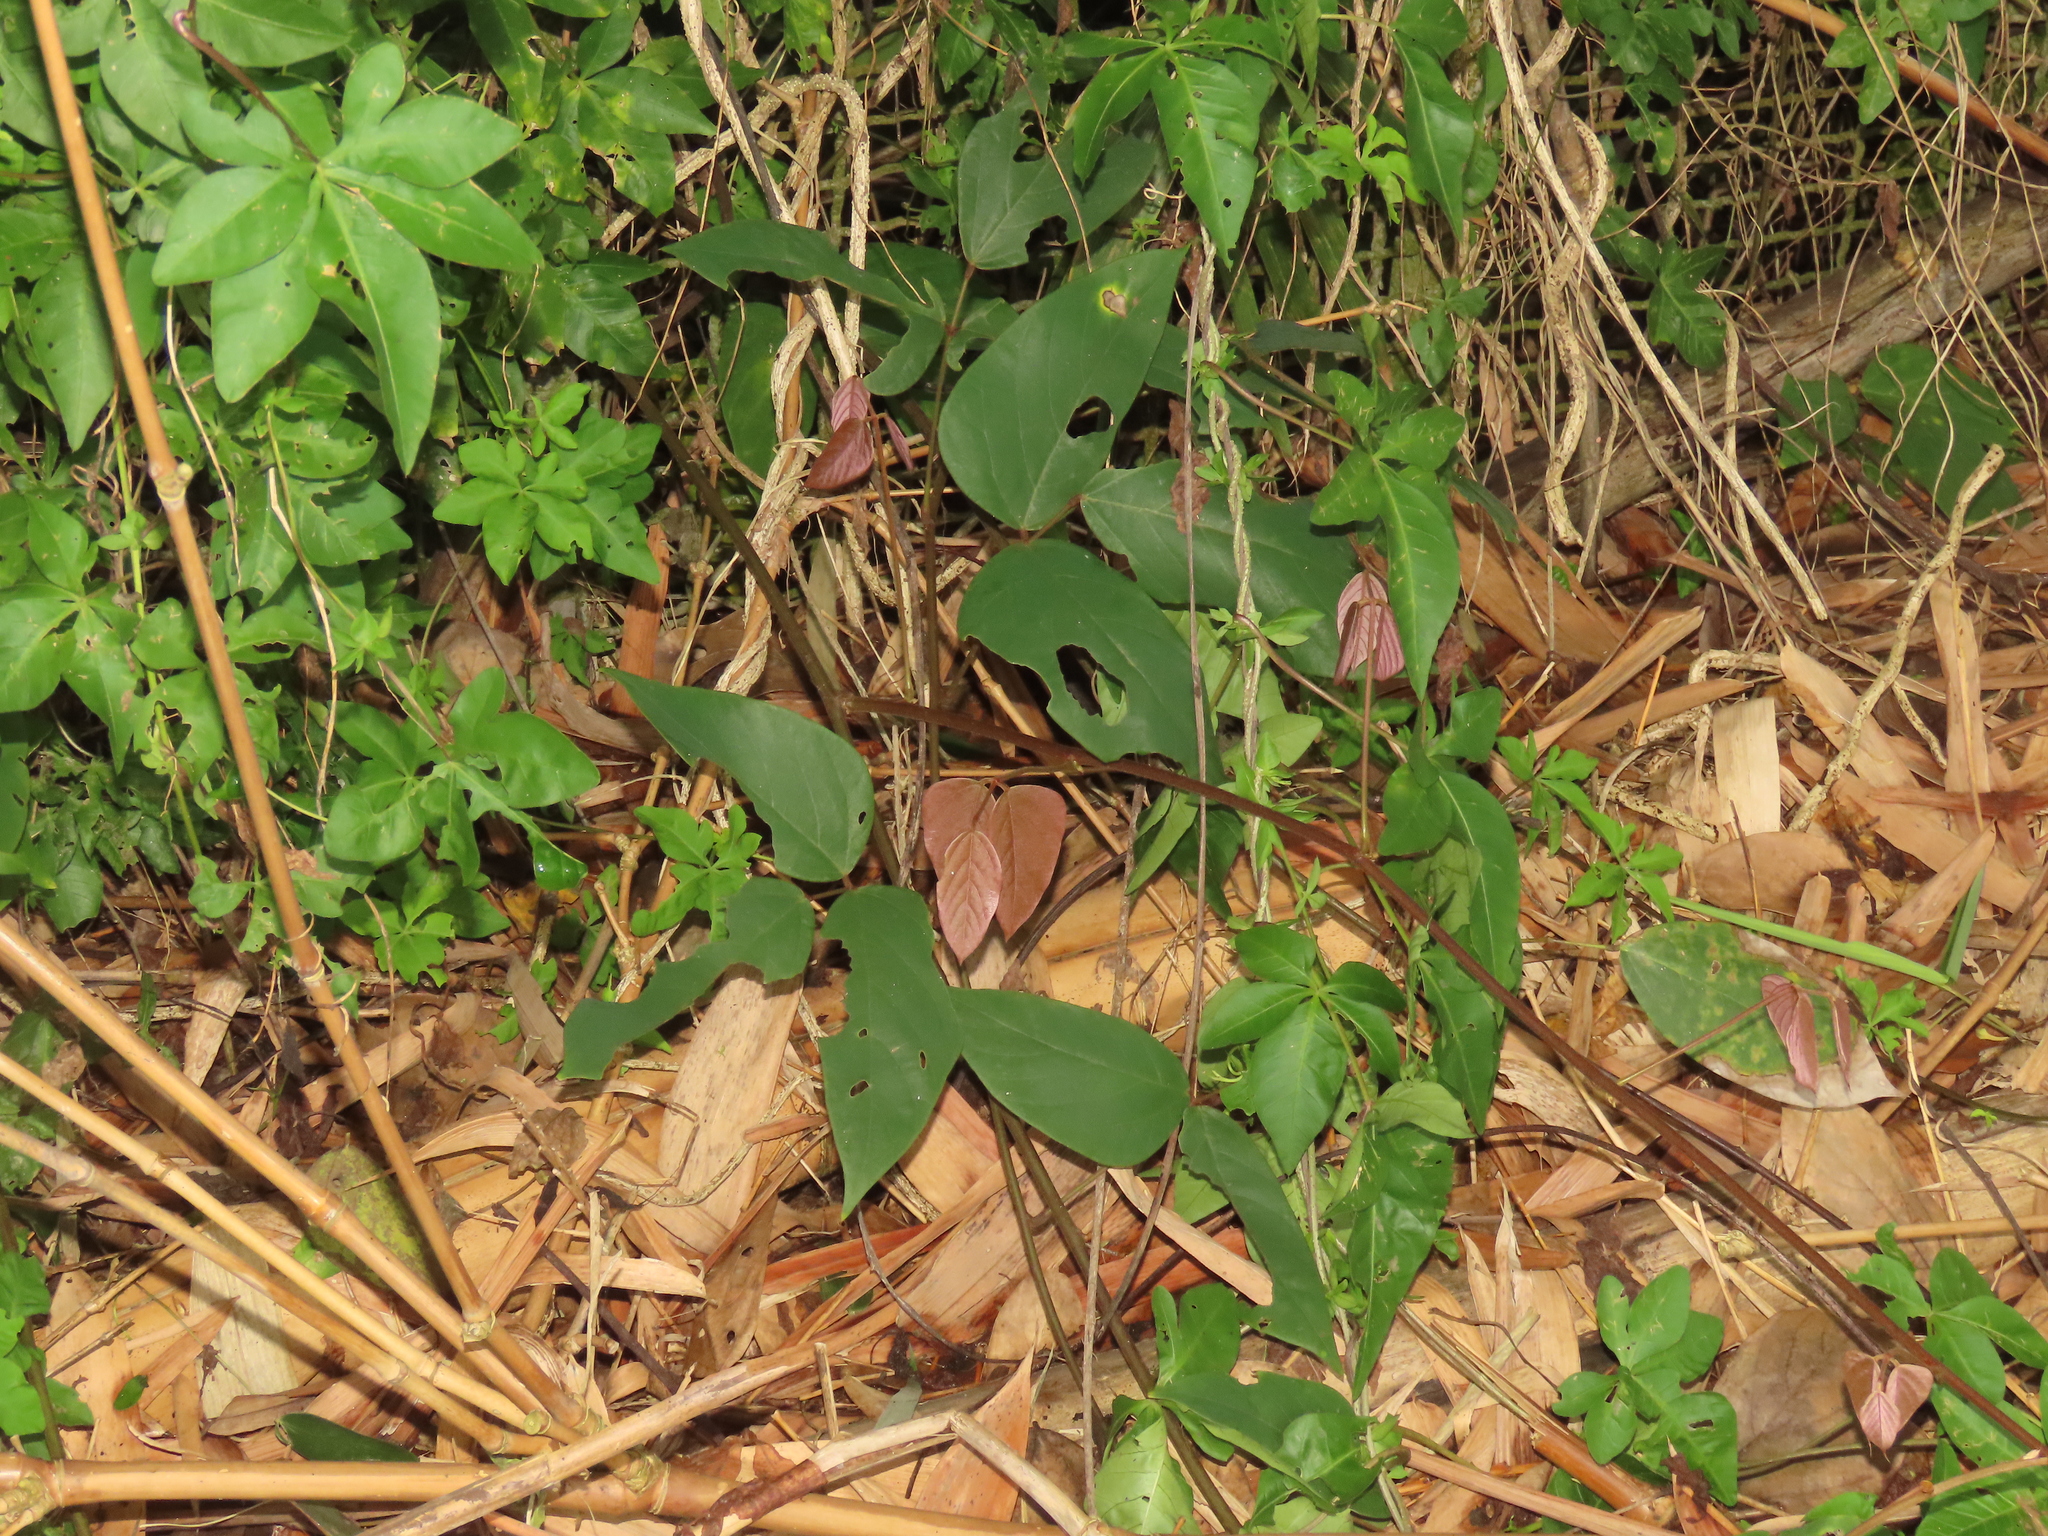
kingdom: Plantae
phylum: Tracheophyta
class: Magnoliopsida
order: Fabales
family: Fabaceae
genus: Pueraria
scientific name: Pueraria montana
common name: Kudzu
